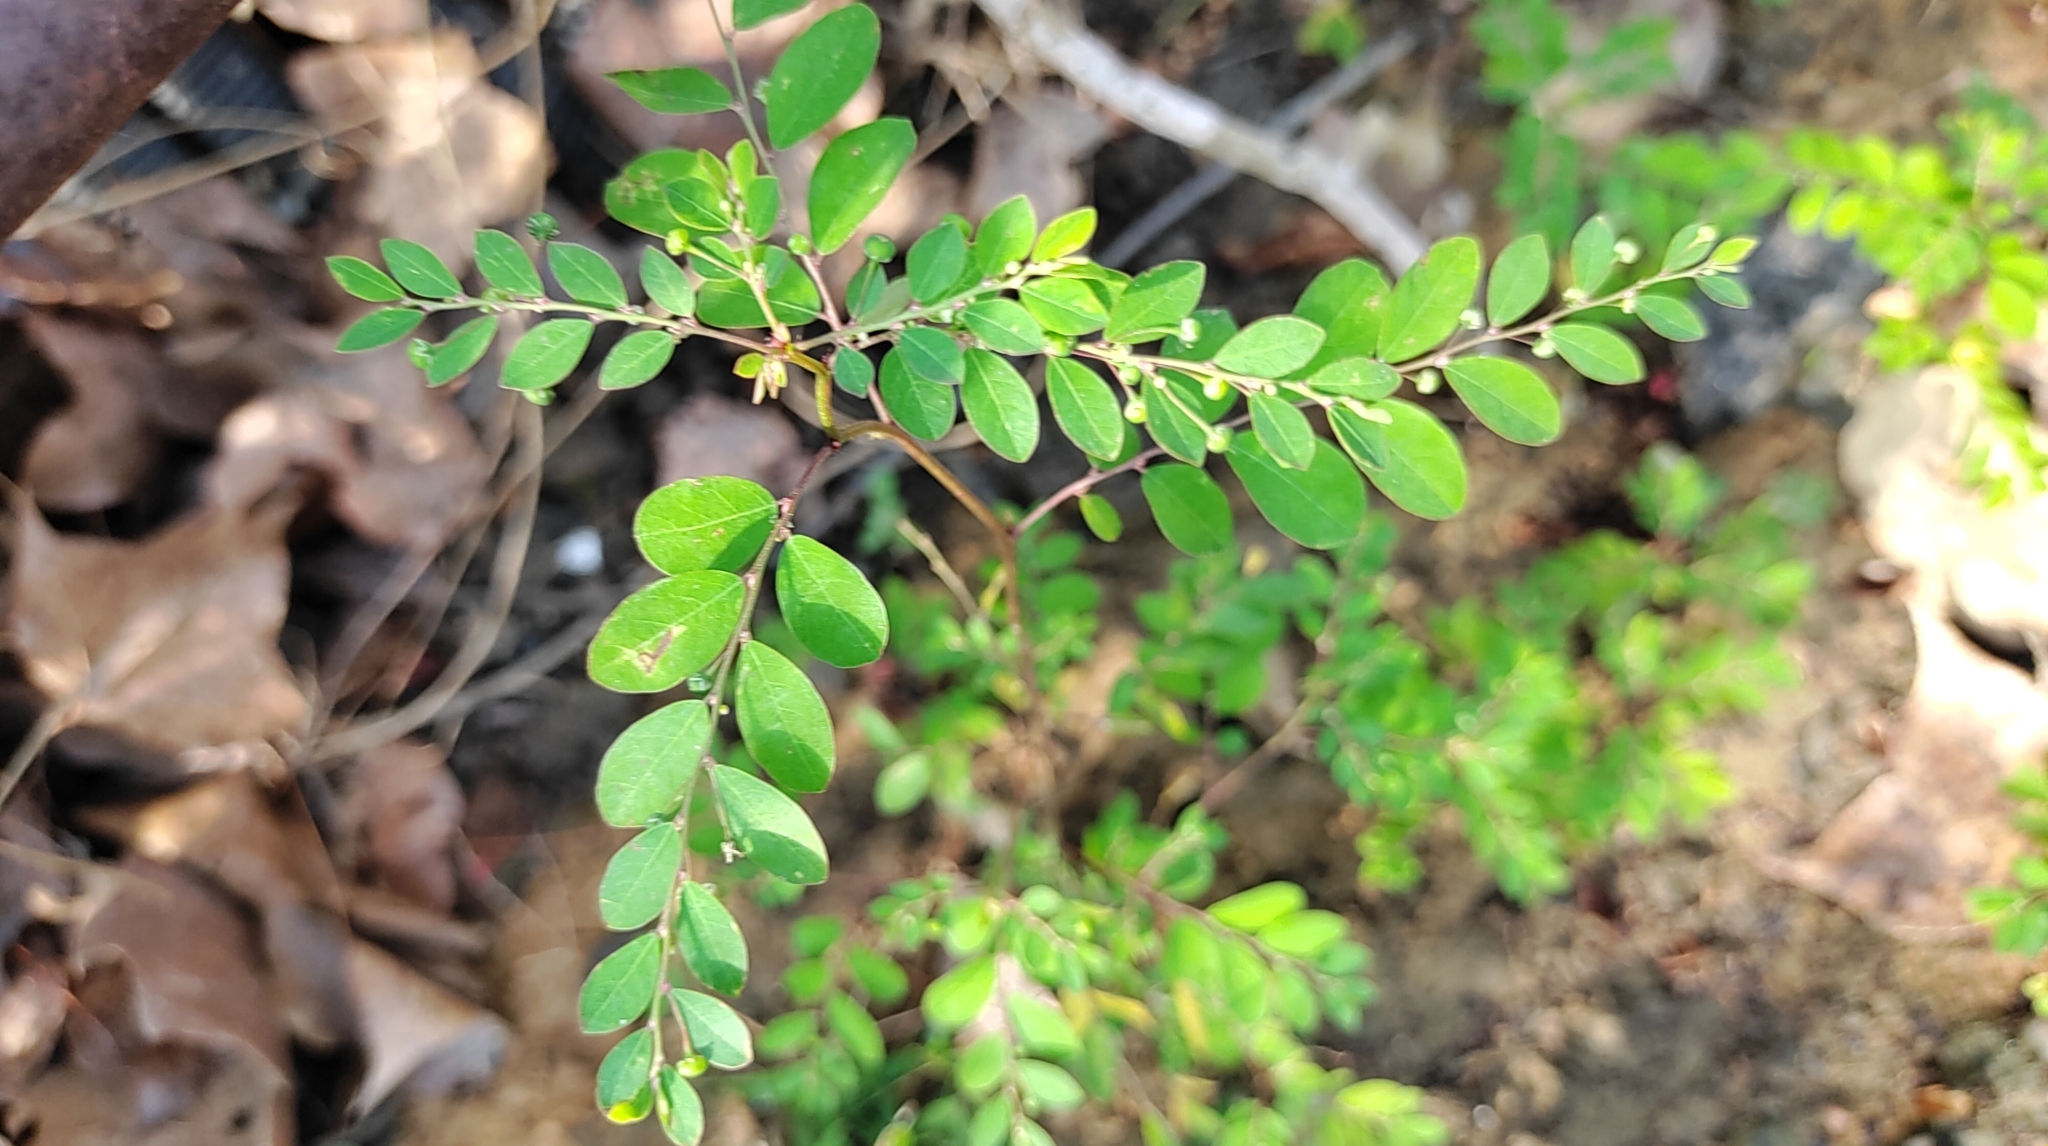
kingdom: Plantae
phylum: Tracheophyta
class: Magnoliopsida
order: Malpighiales
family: Phyllanthaceae
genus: Phyllanthus
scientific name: Phyllanthus tenellus
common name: Mascarene island leaf-flower
